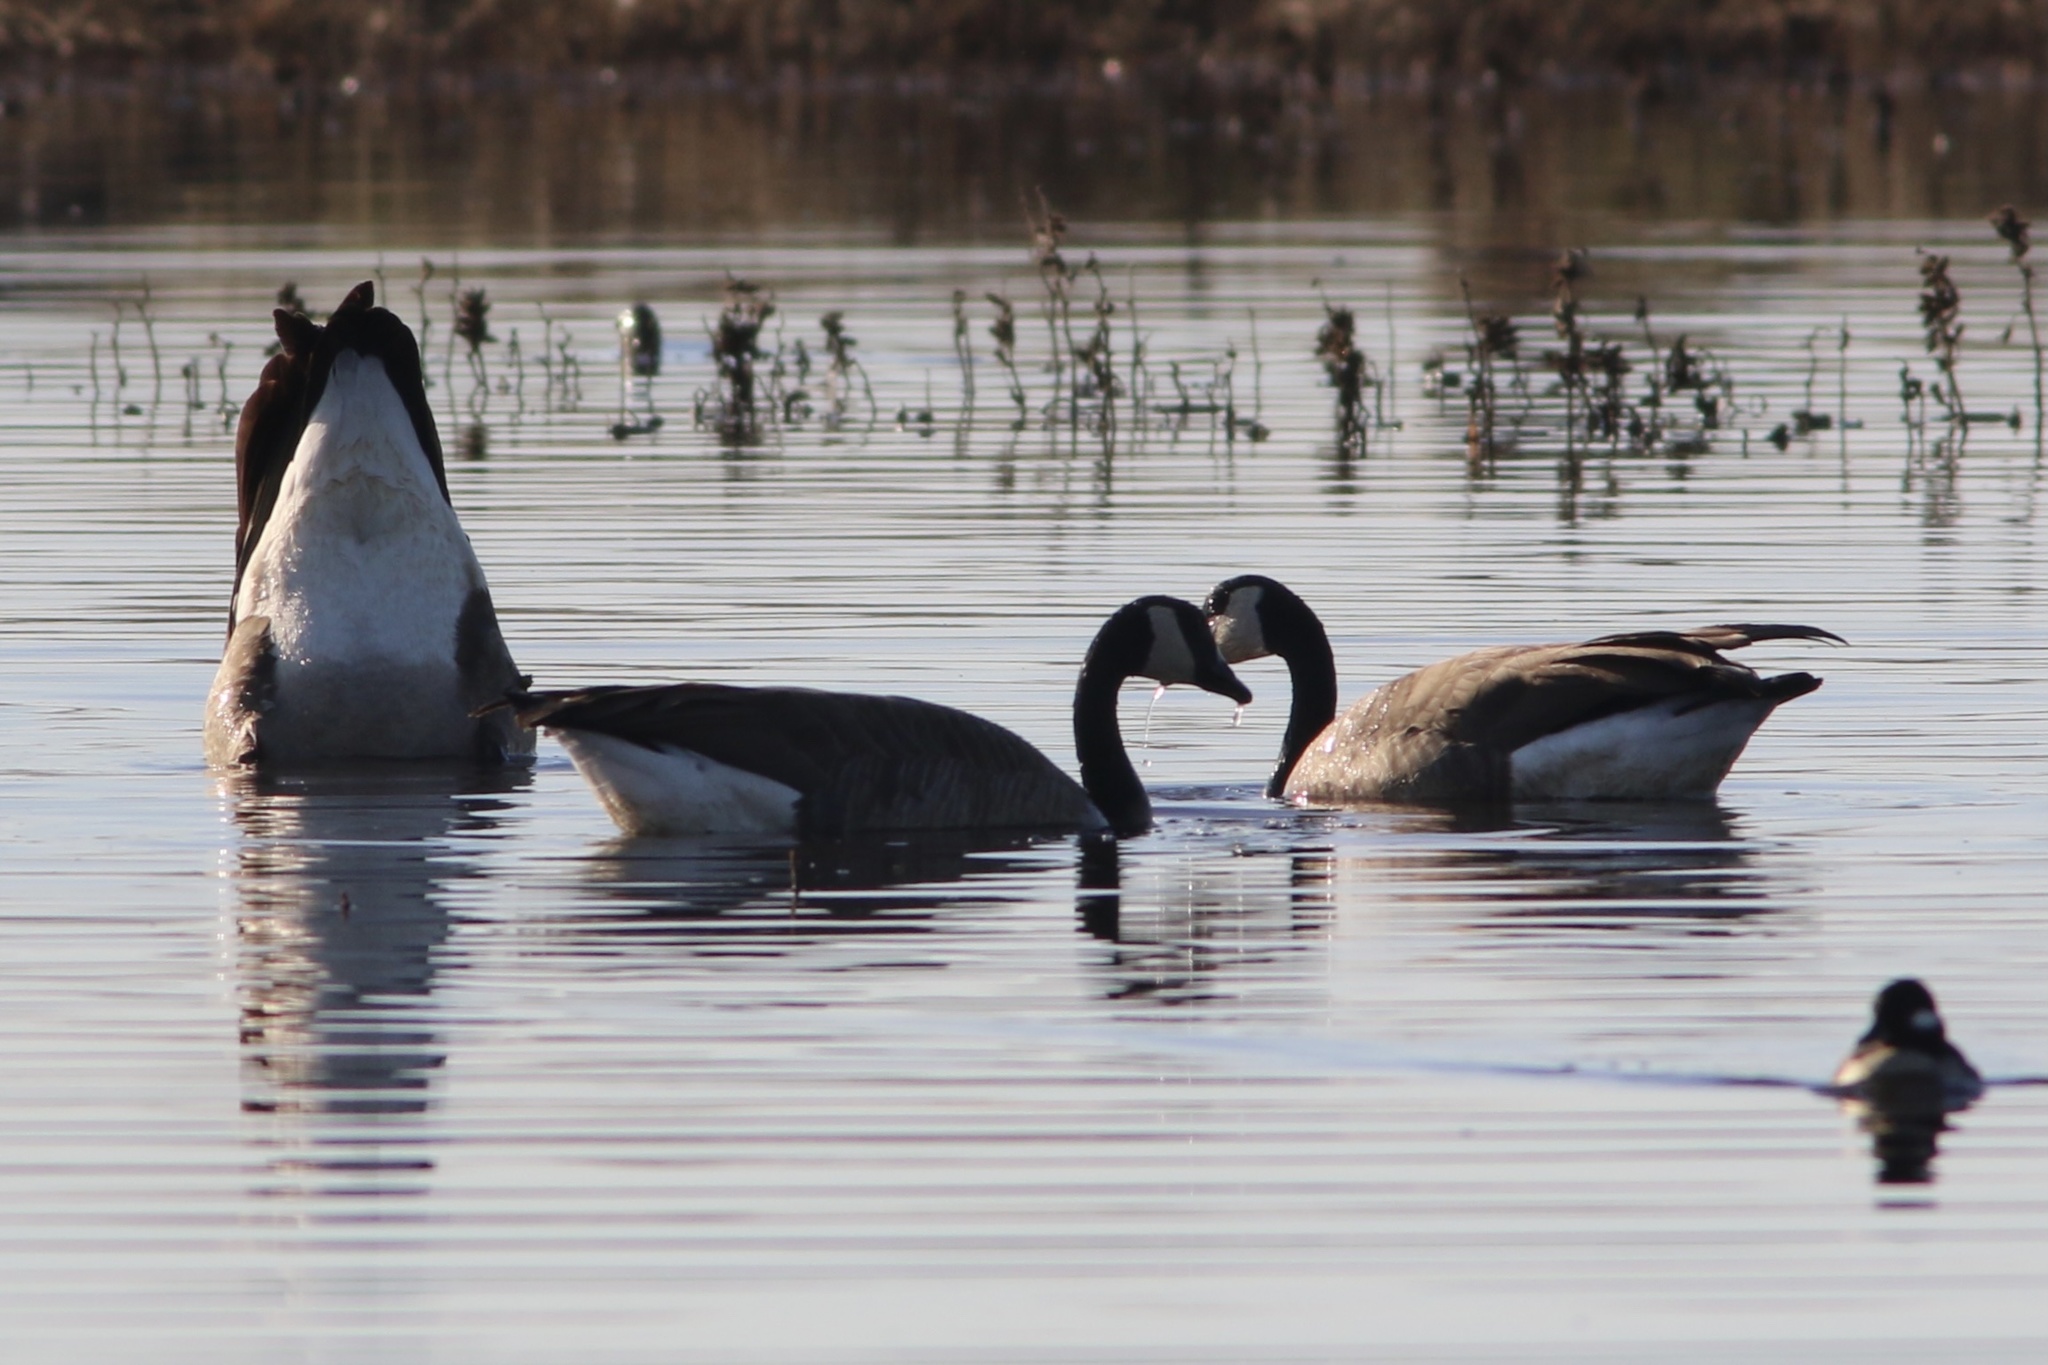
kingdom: Animalia
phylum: Chordata
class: Aves
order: Anseriformes
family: Anatidae
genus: Branta
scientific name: Branta canadensis
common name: Canada goose
